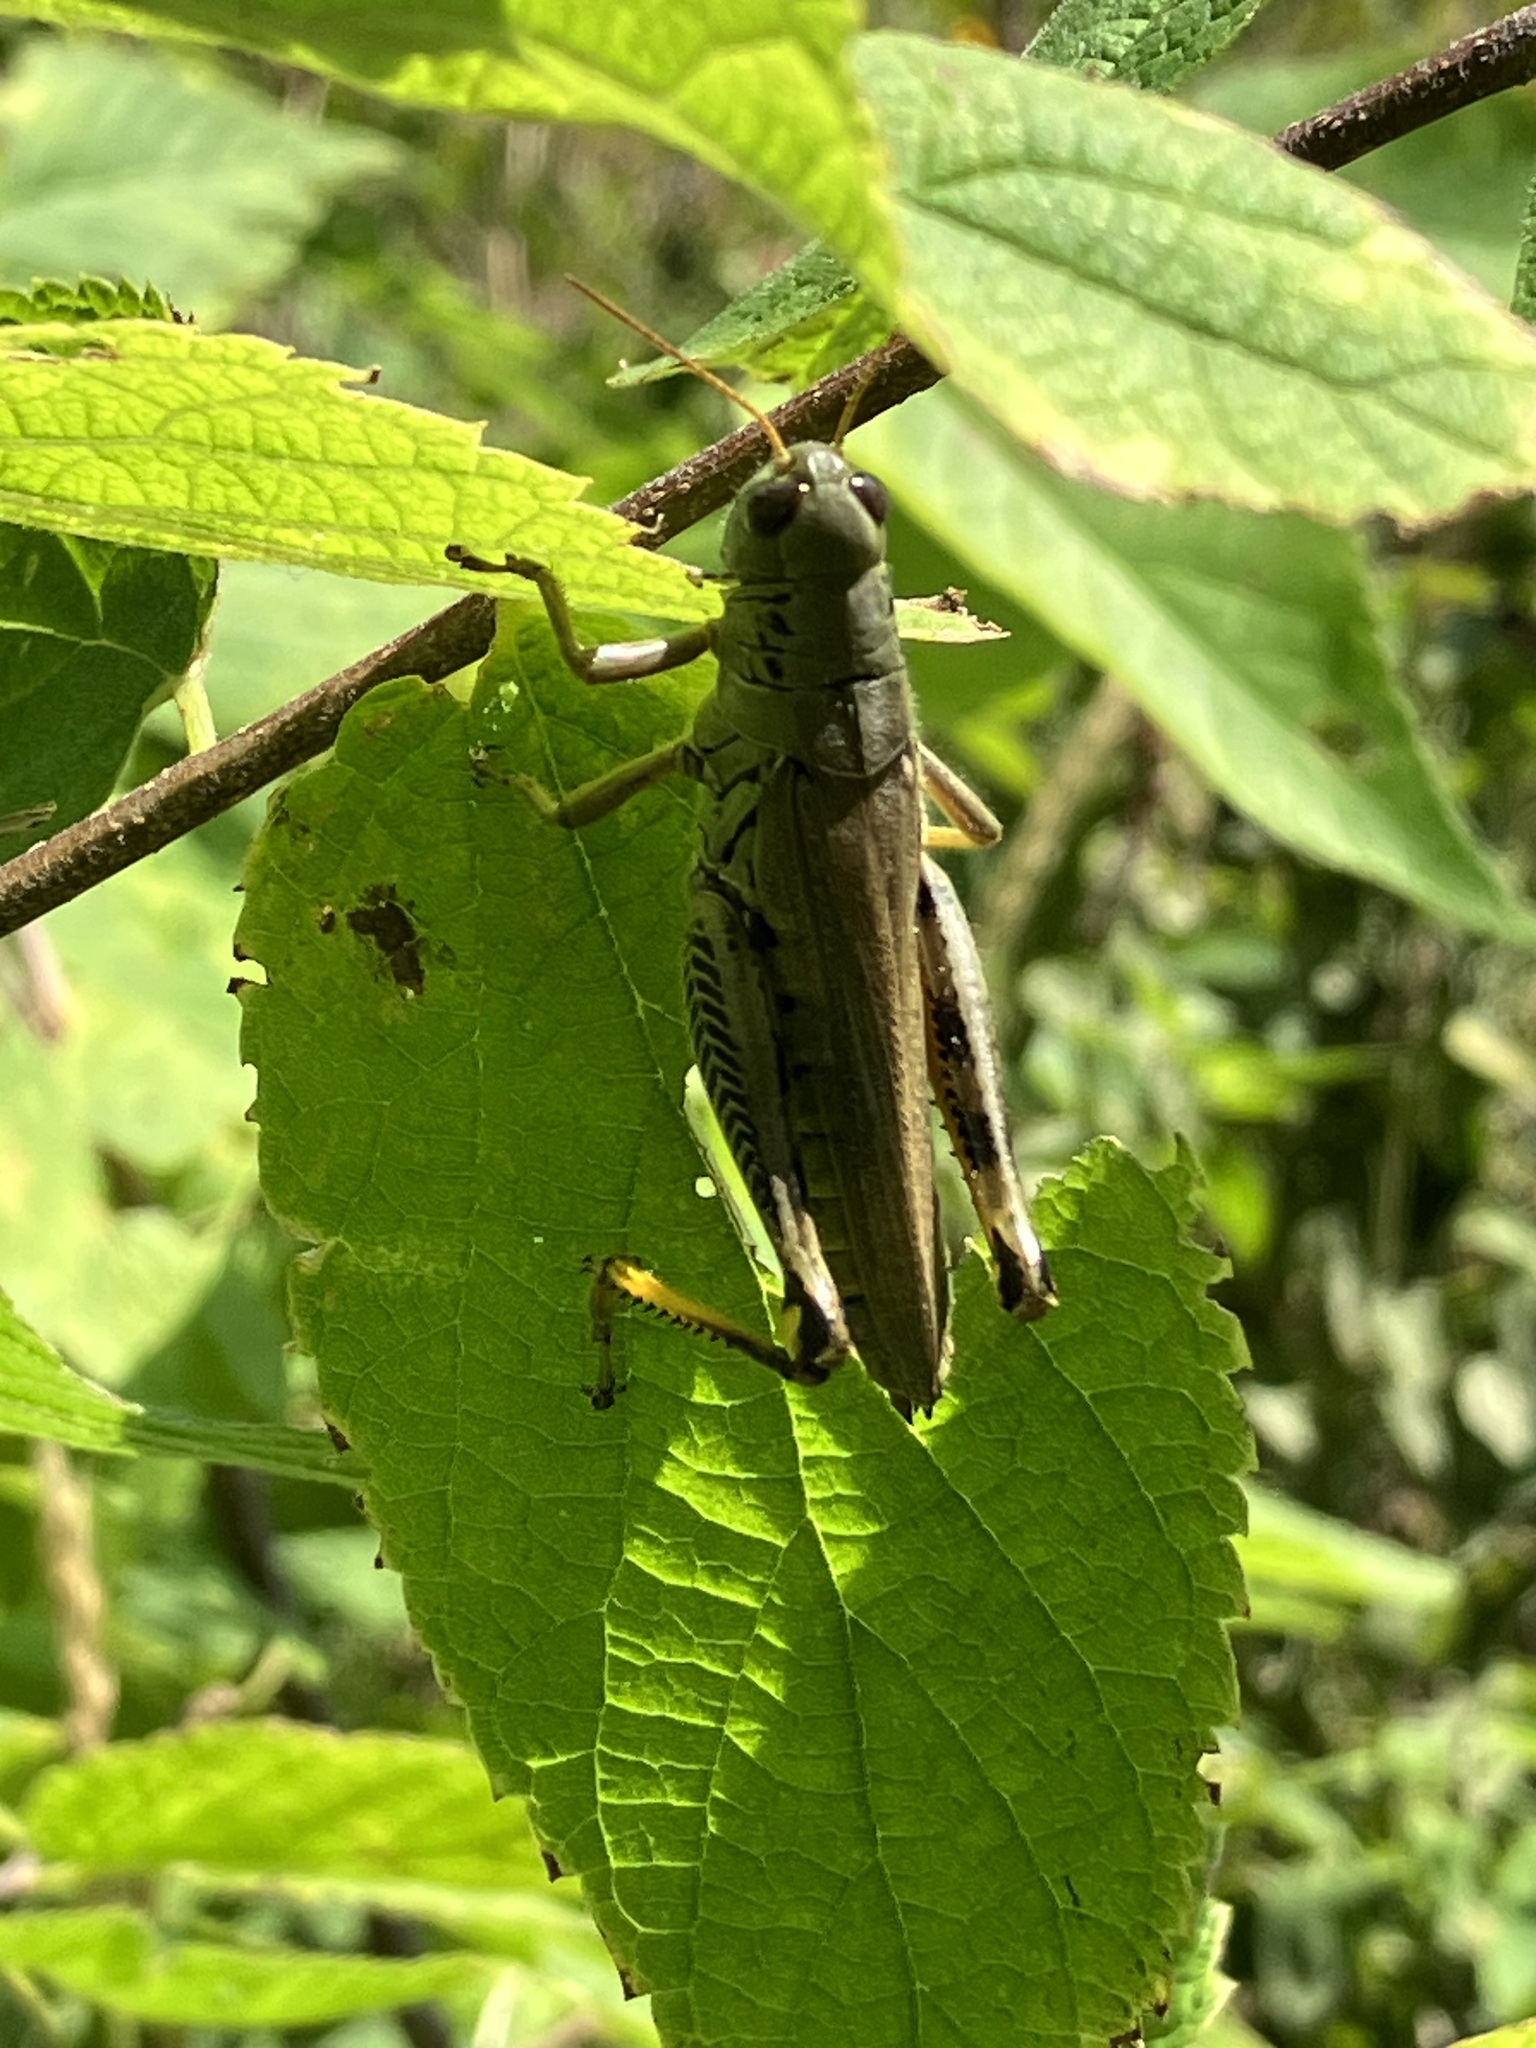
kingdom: Animalia
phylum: Arthropoda
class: Insecta
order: Orthoptera
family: Acrididae
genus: Melanoplus
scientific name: Melanoplus differentialis
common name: Differential grasshopper
